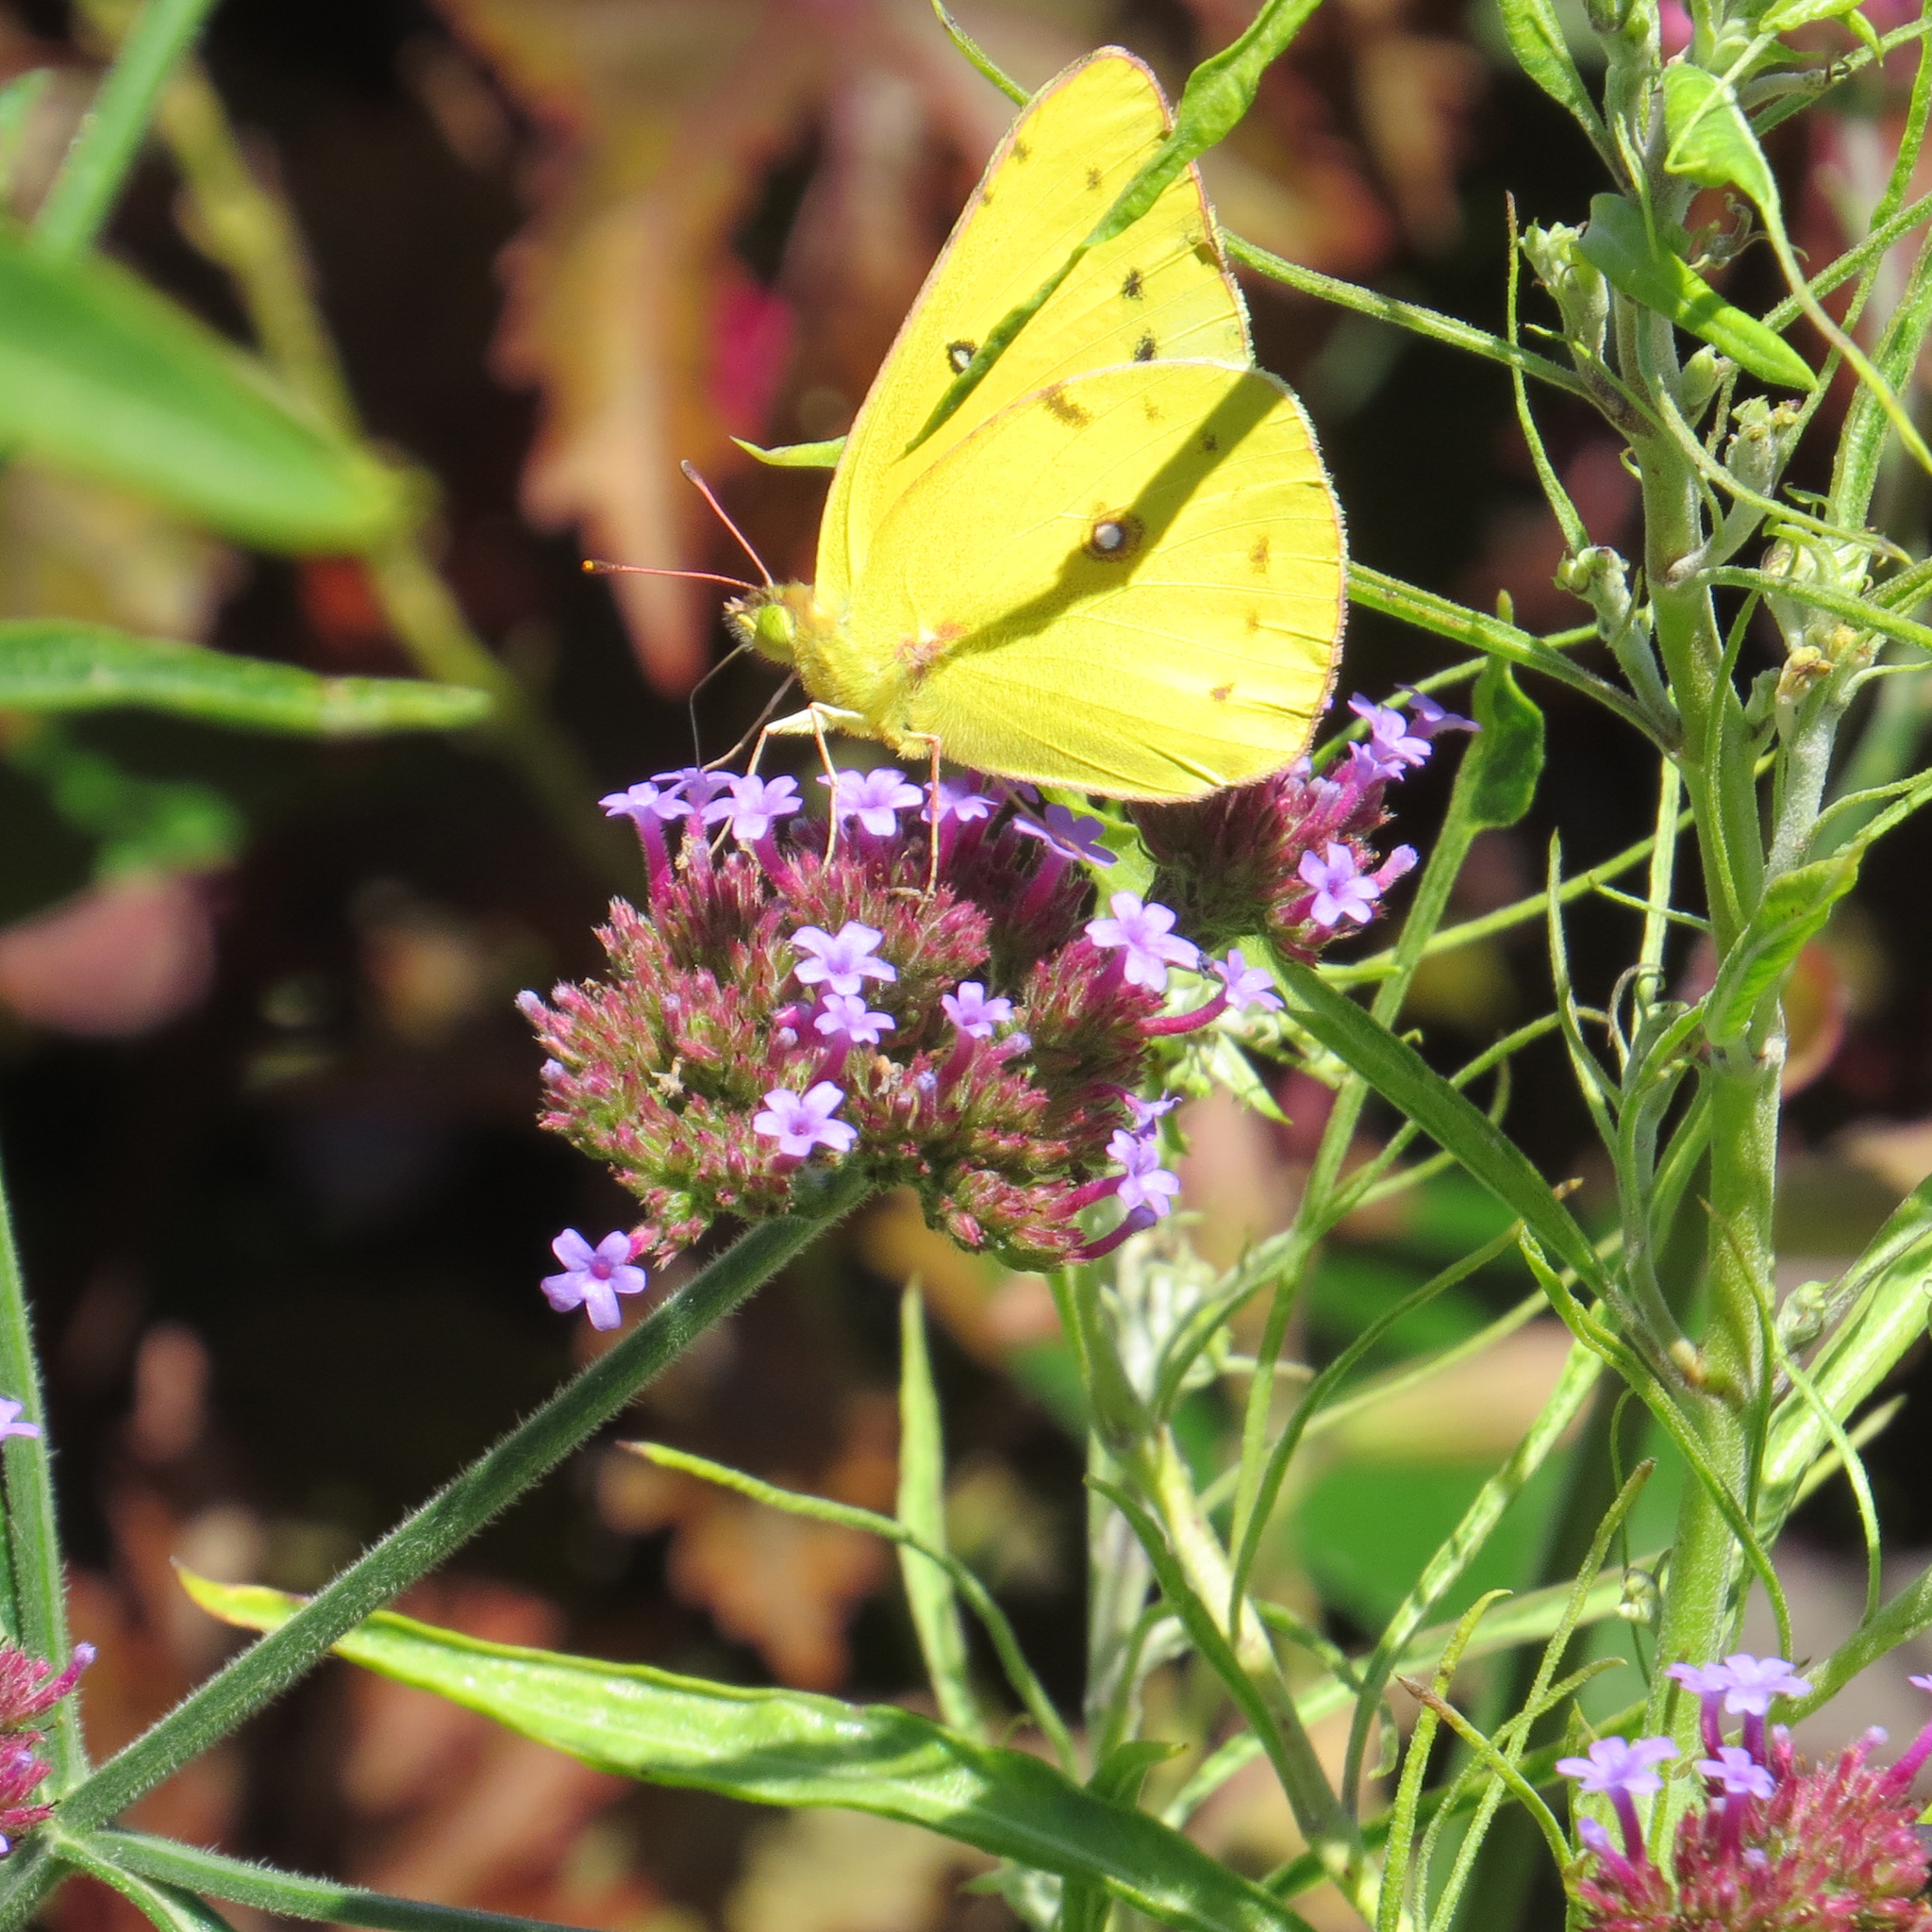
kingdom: Animalia
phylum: Arthropoda
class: Insecta
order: Lepidoptera
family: Pieridae
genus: Colias
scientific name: Colias eurytheme
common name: Alfalfa butterfly
